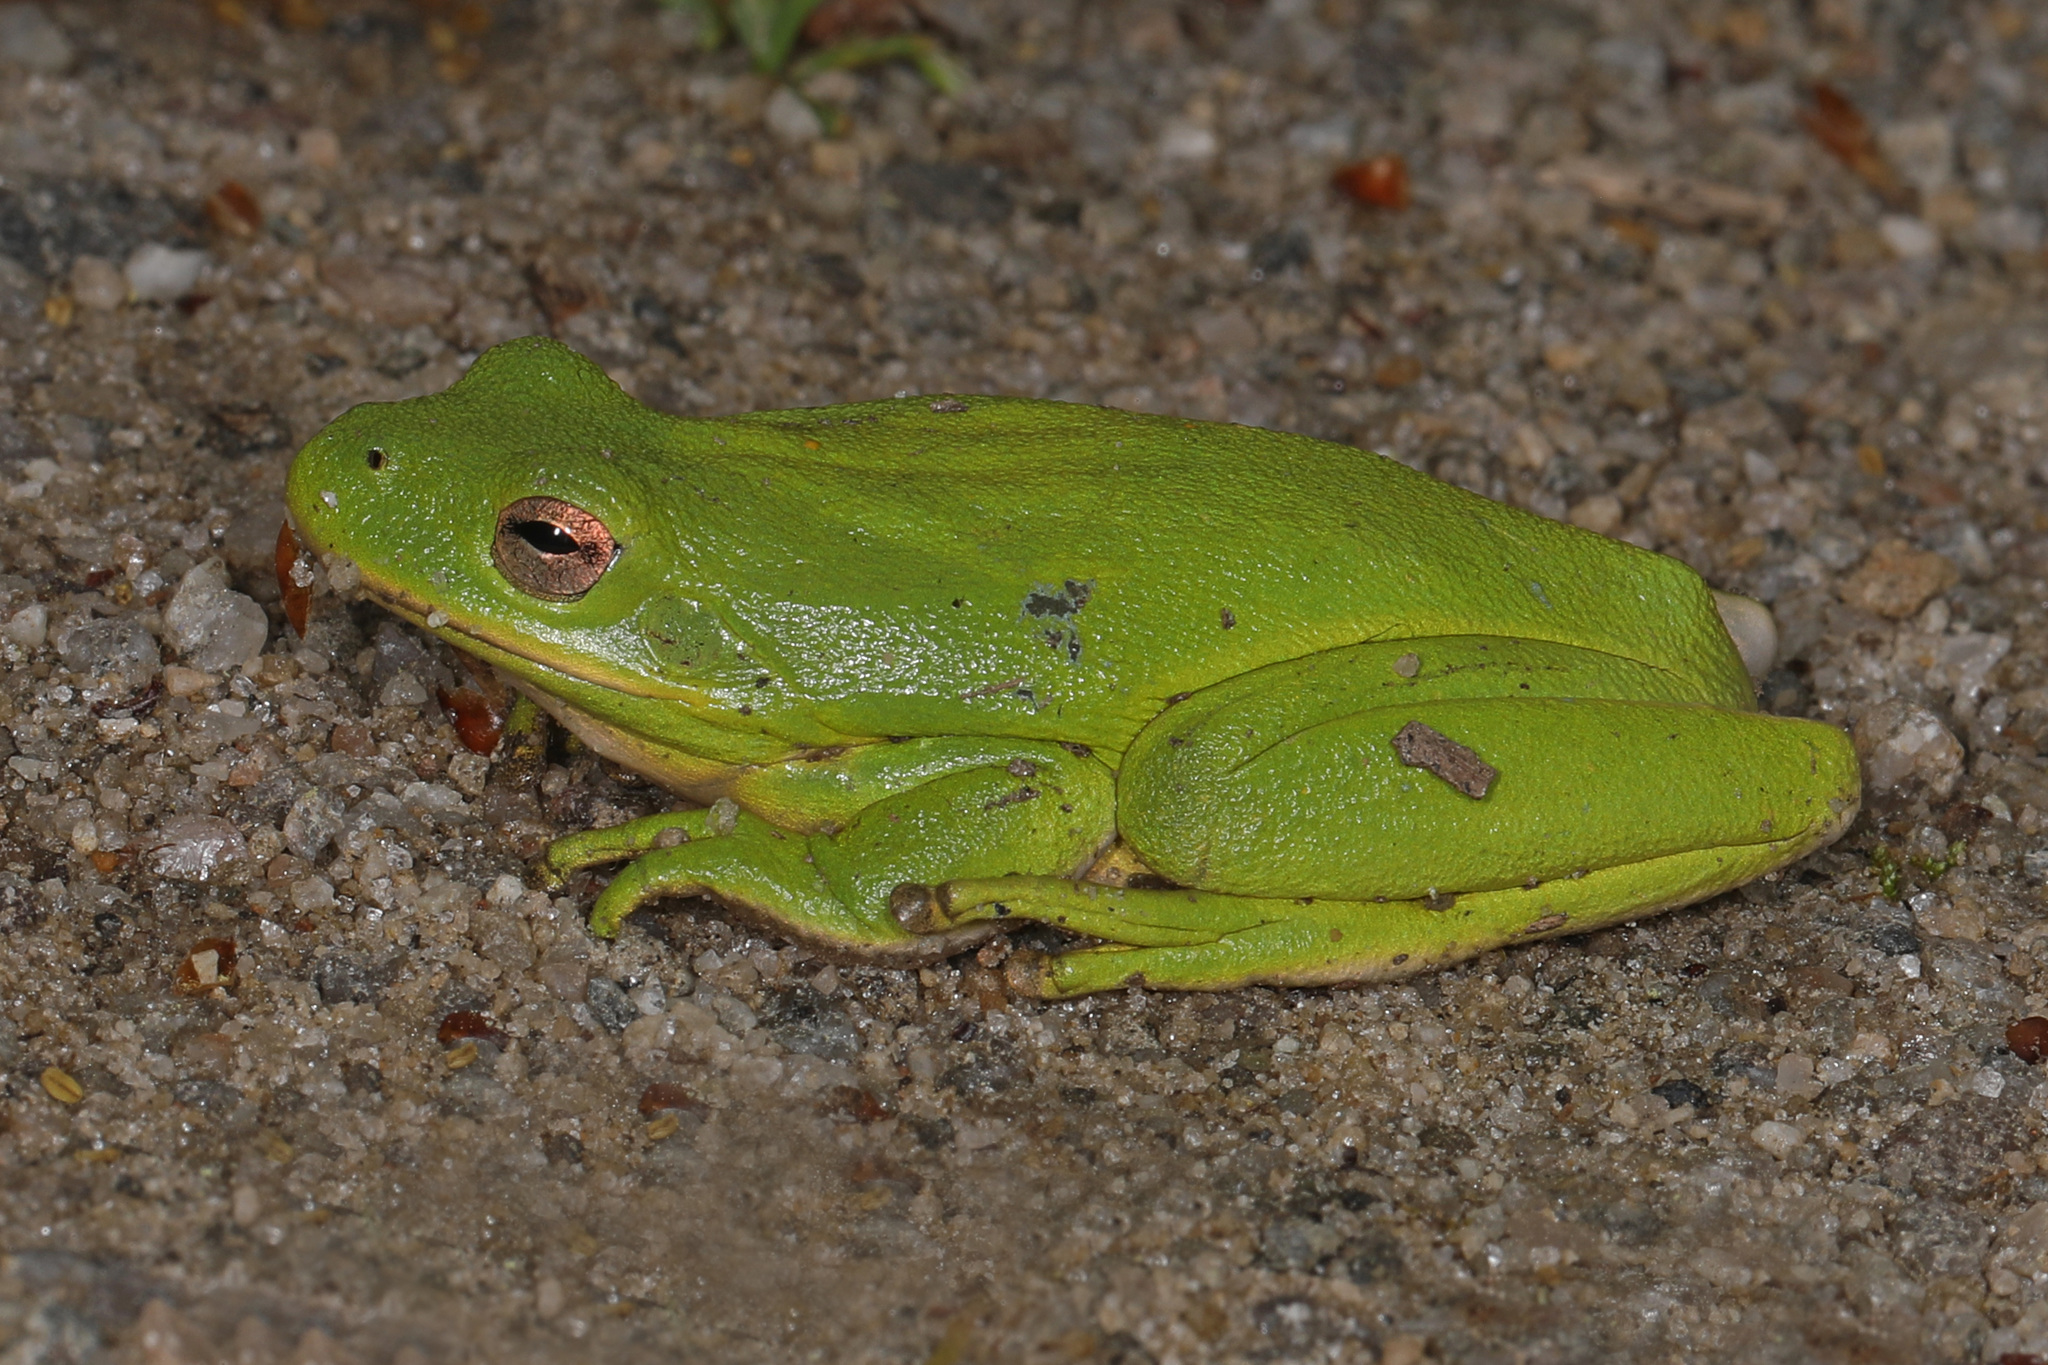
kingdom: Animalia
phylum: Chordata
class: Amphibia
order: Anura
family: Hylidae
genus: Dryophytes
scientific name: Dryophytes cinereus
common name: Green treefrog
